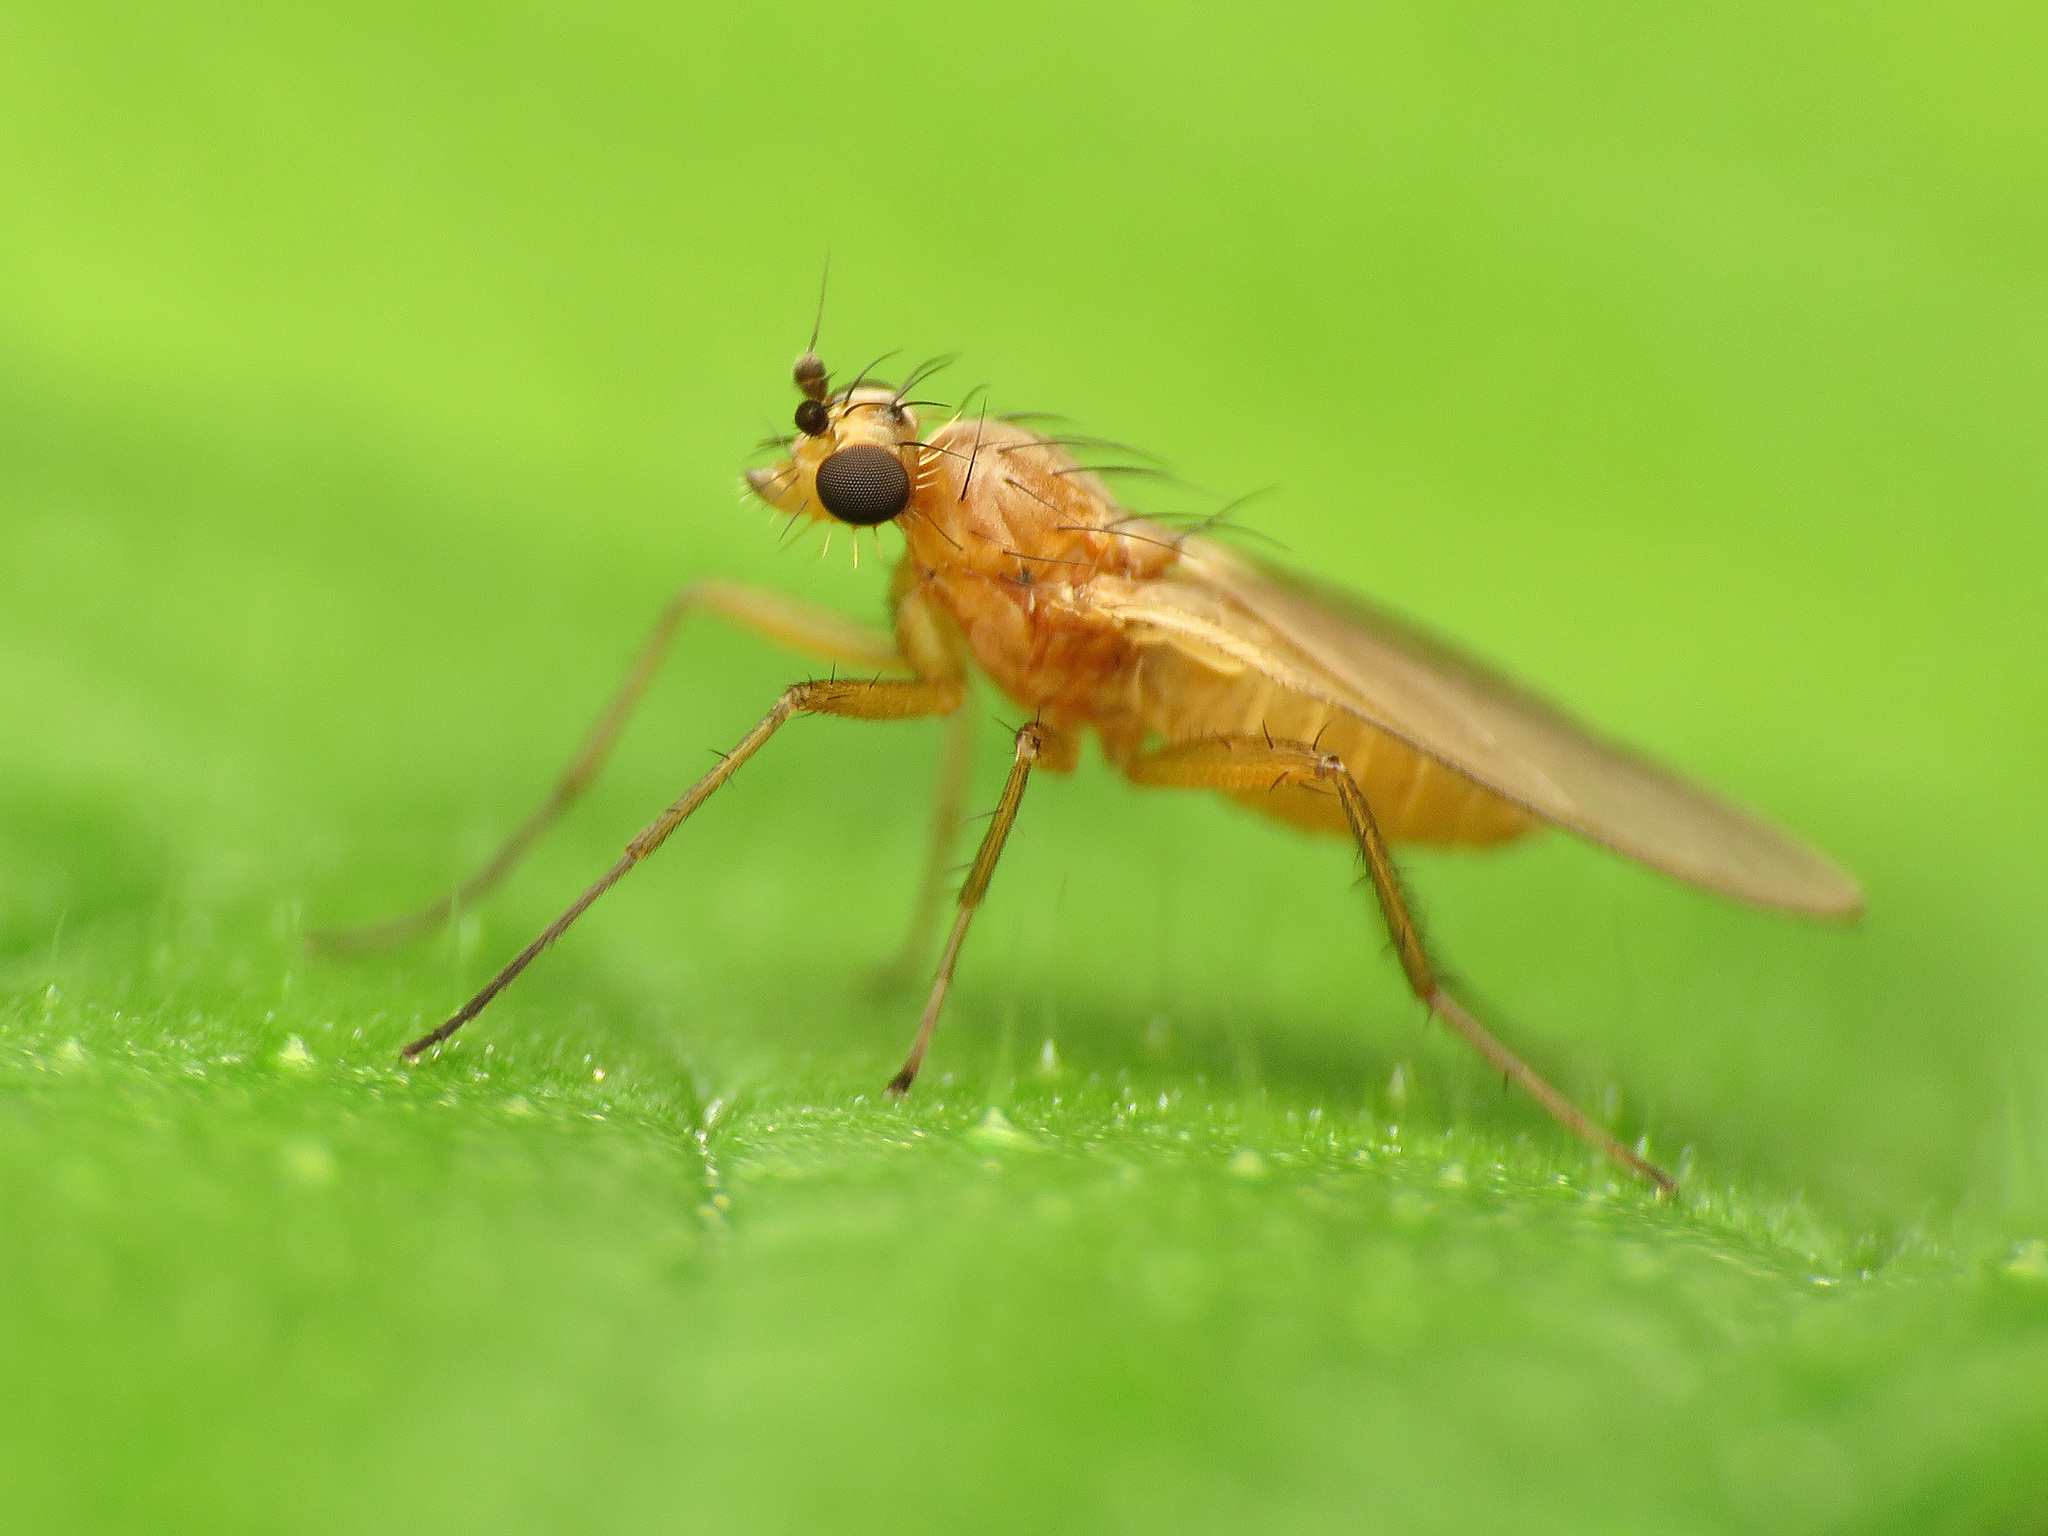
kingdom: Animalia
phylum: Arthropoda
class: Insecta
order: Diptera
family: Lonchopteridae
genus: Lonchoptera
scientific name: Lonchoptera bifurcata
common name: Spear-winged fly
